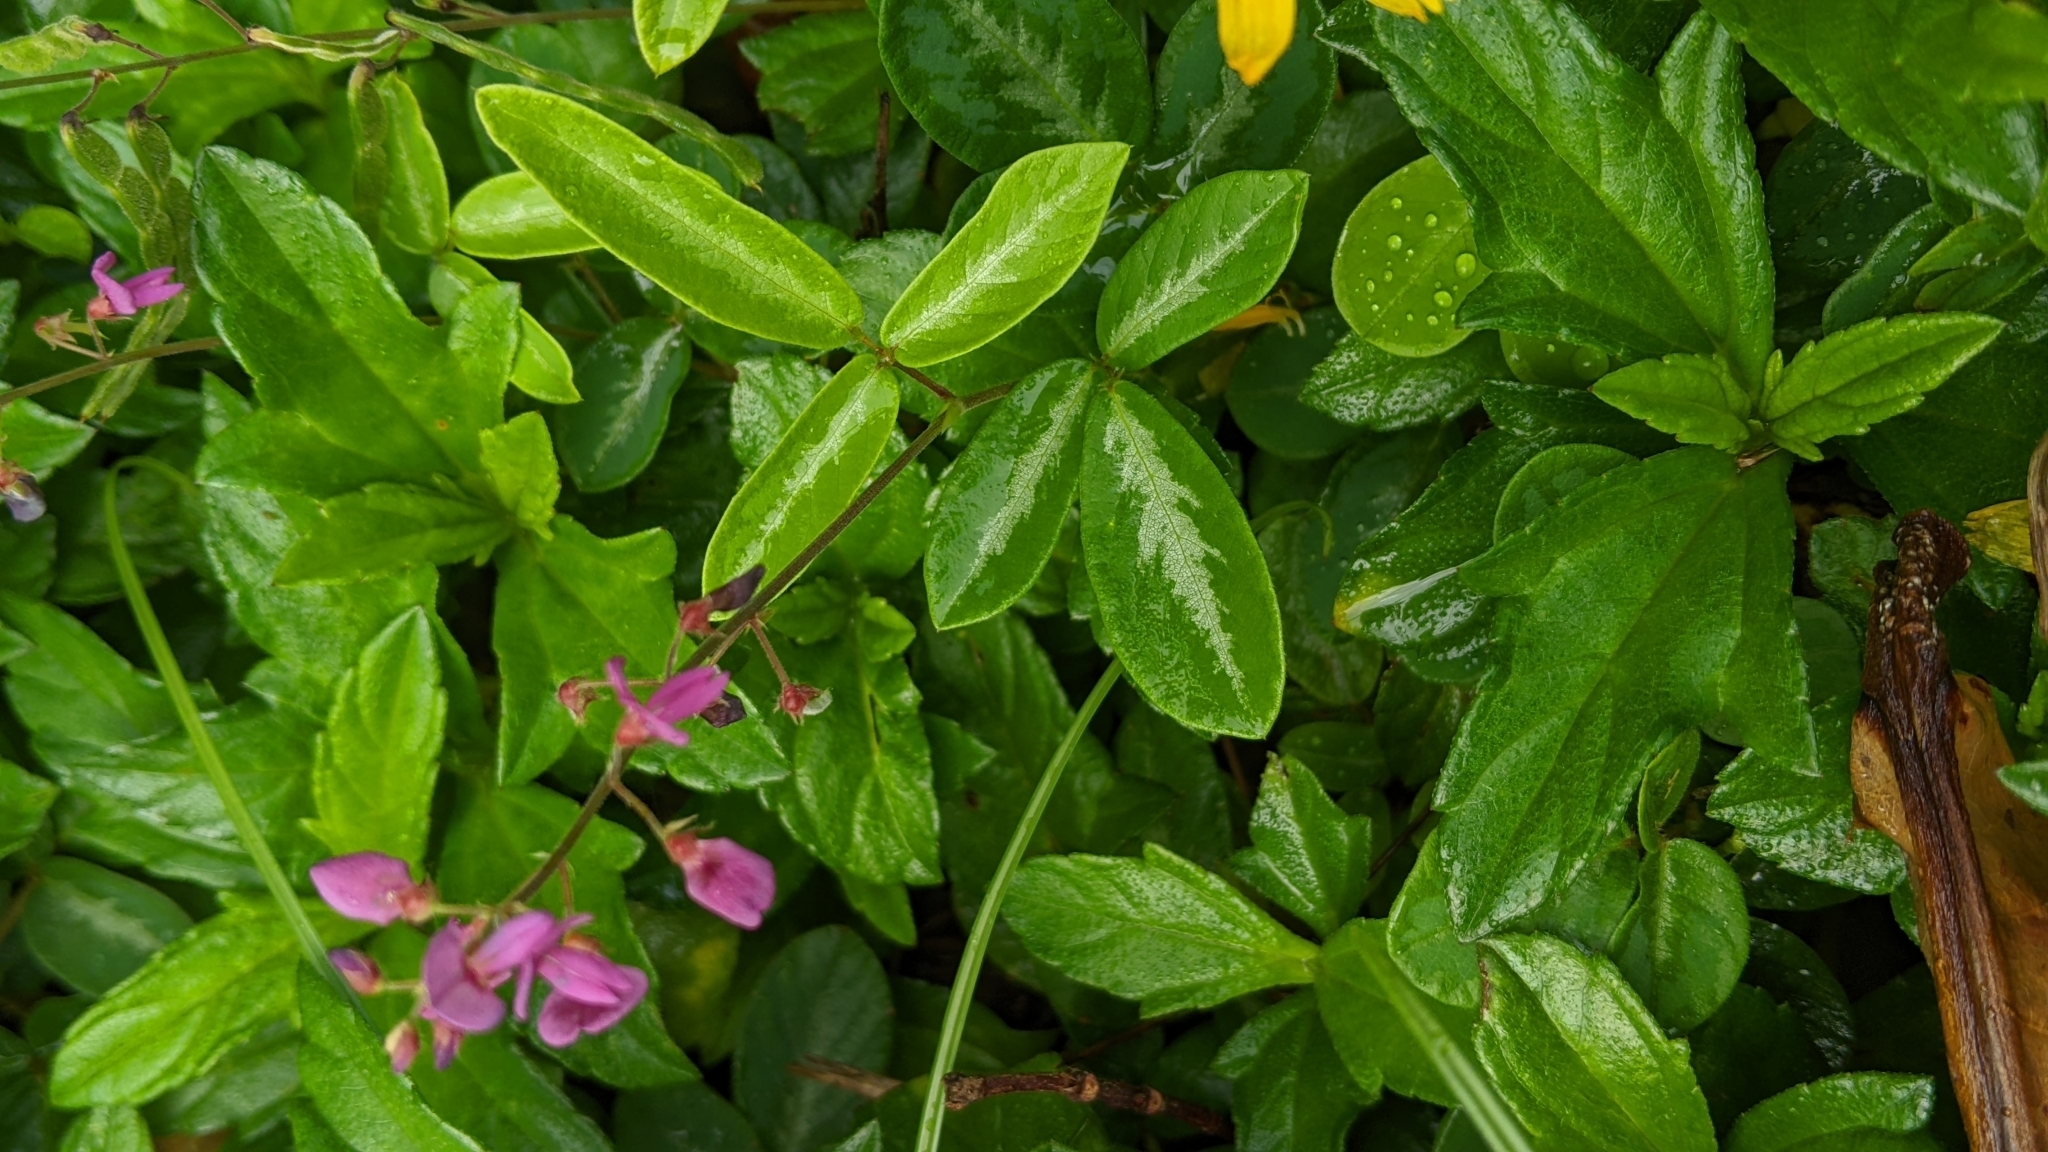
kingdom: Plantae
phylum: Tracheophyta
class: Magnoliopsida
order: Fabales
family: Fabaceae
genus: Desmodium
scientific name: Desmodium incanum
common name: Tickclover
